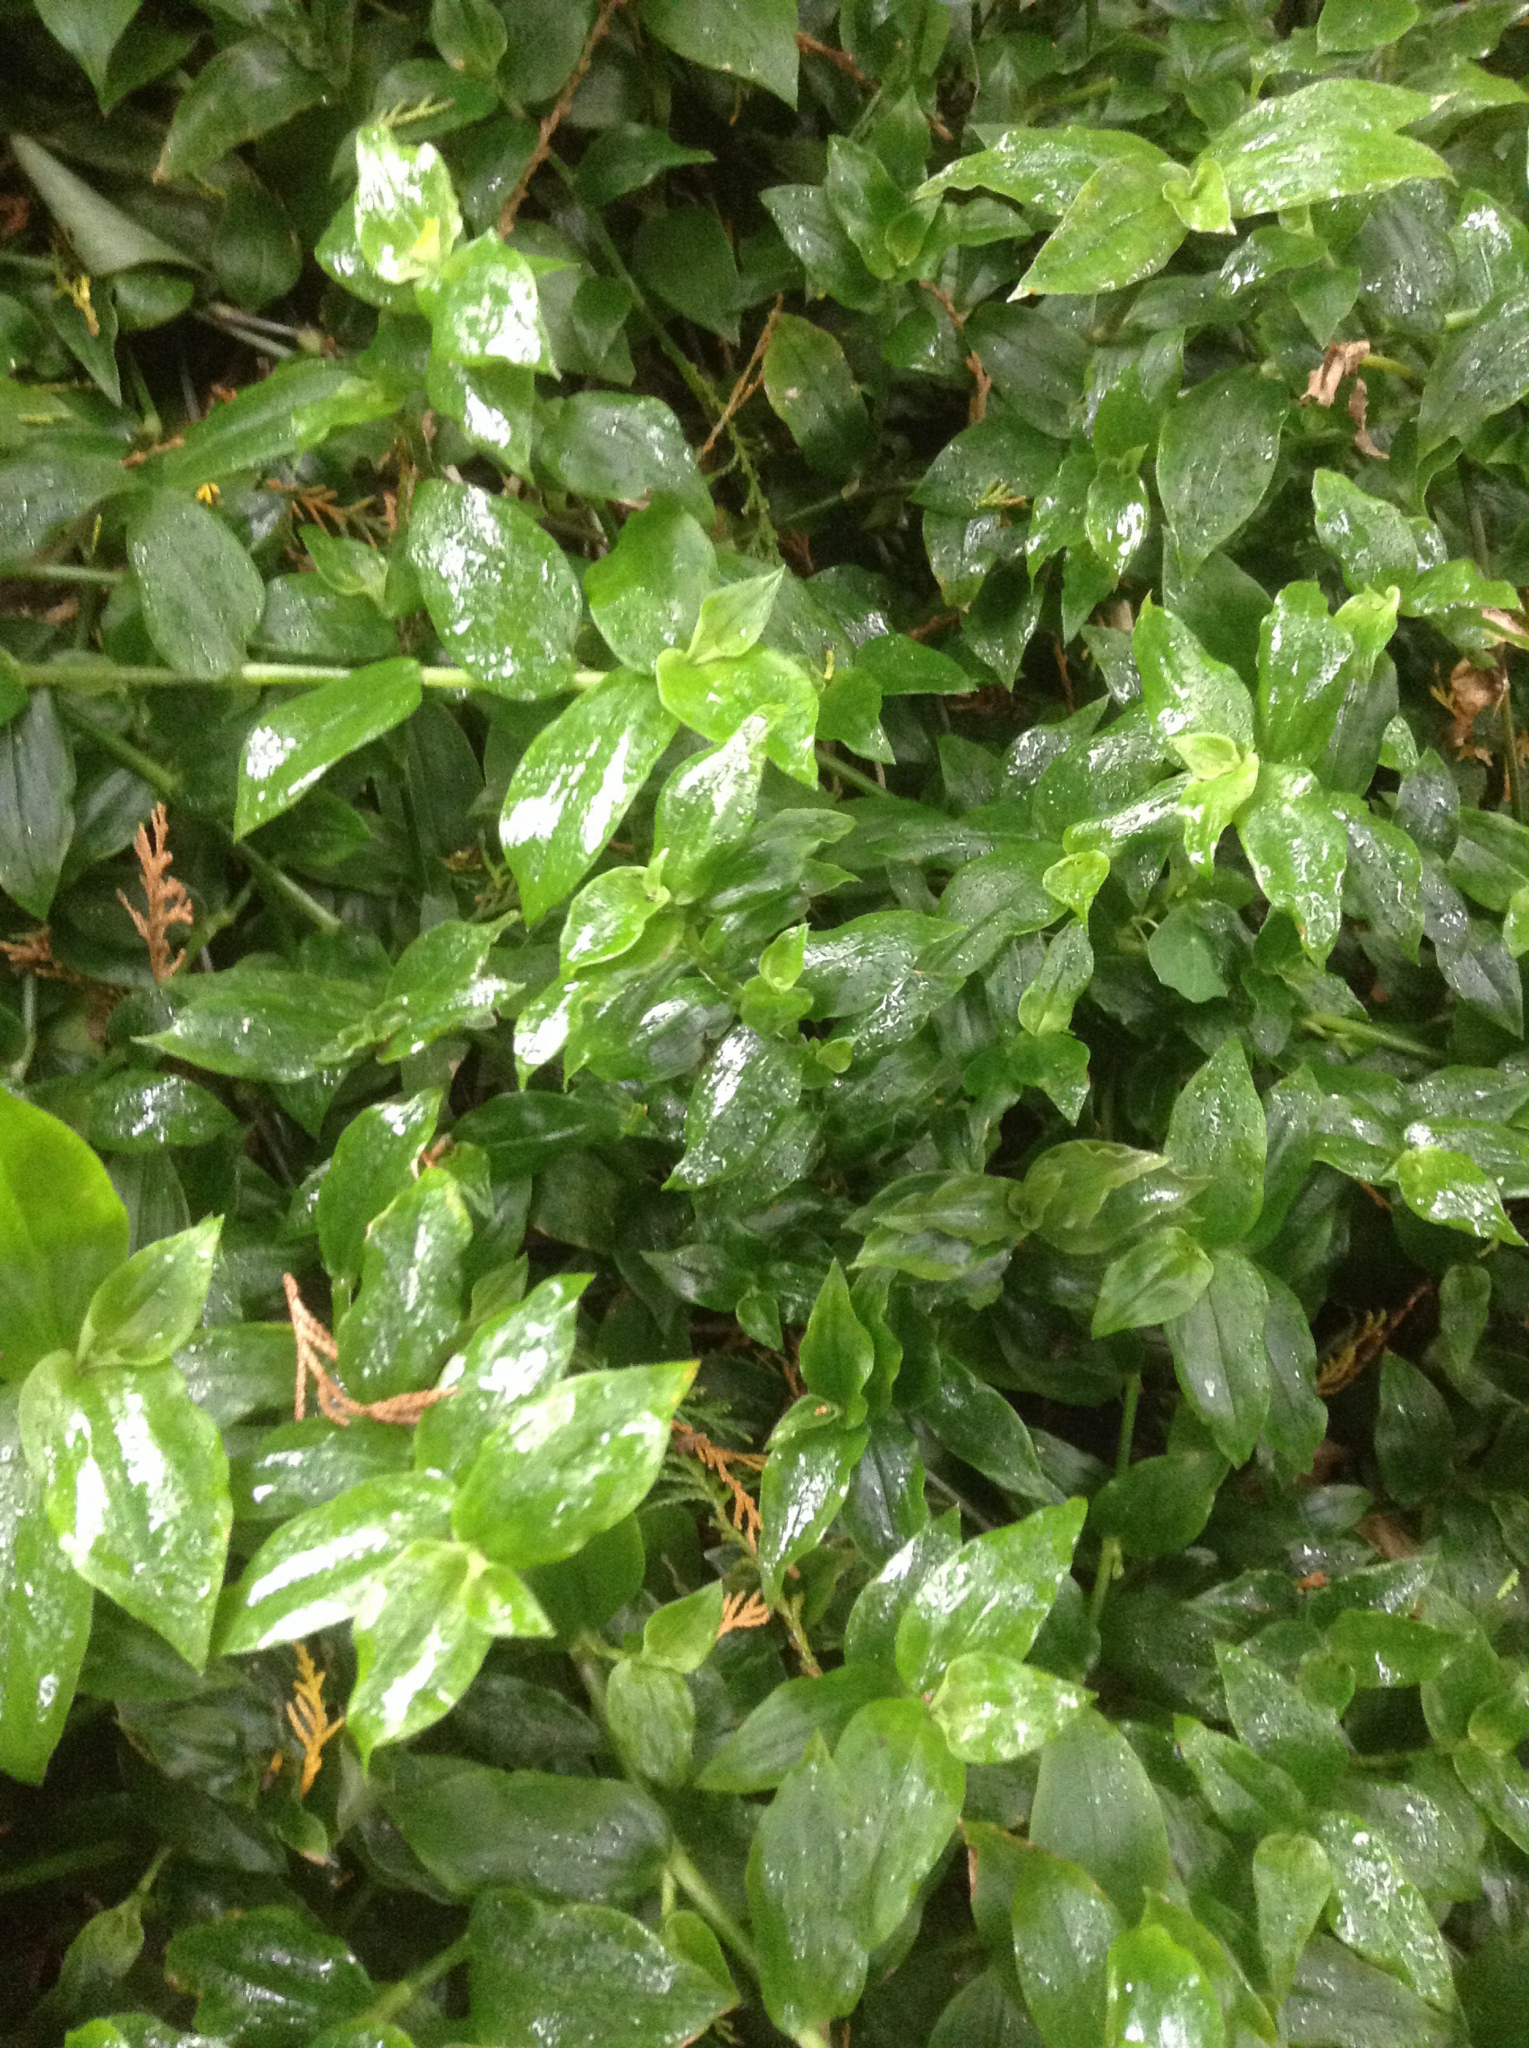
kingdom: Plantae
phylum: Tracheophyta
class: Liliopsida
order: Commelinales
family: Commelinaceae
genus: Tradescantia
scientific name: Tradescantia fluminensis
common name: Wandering-jew
